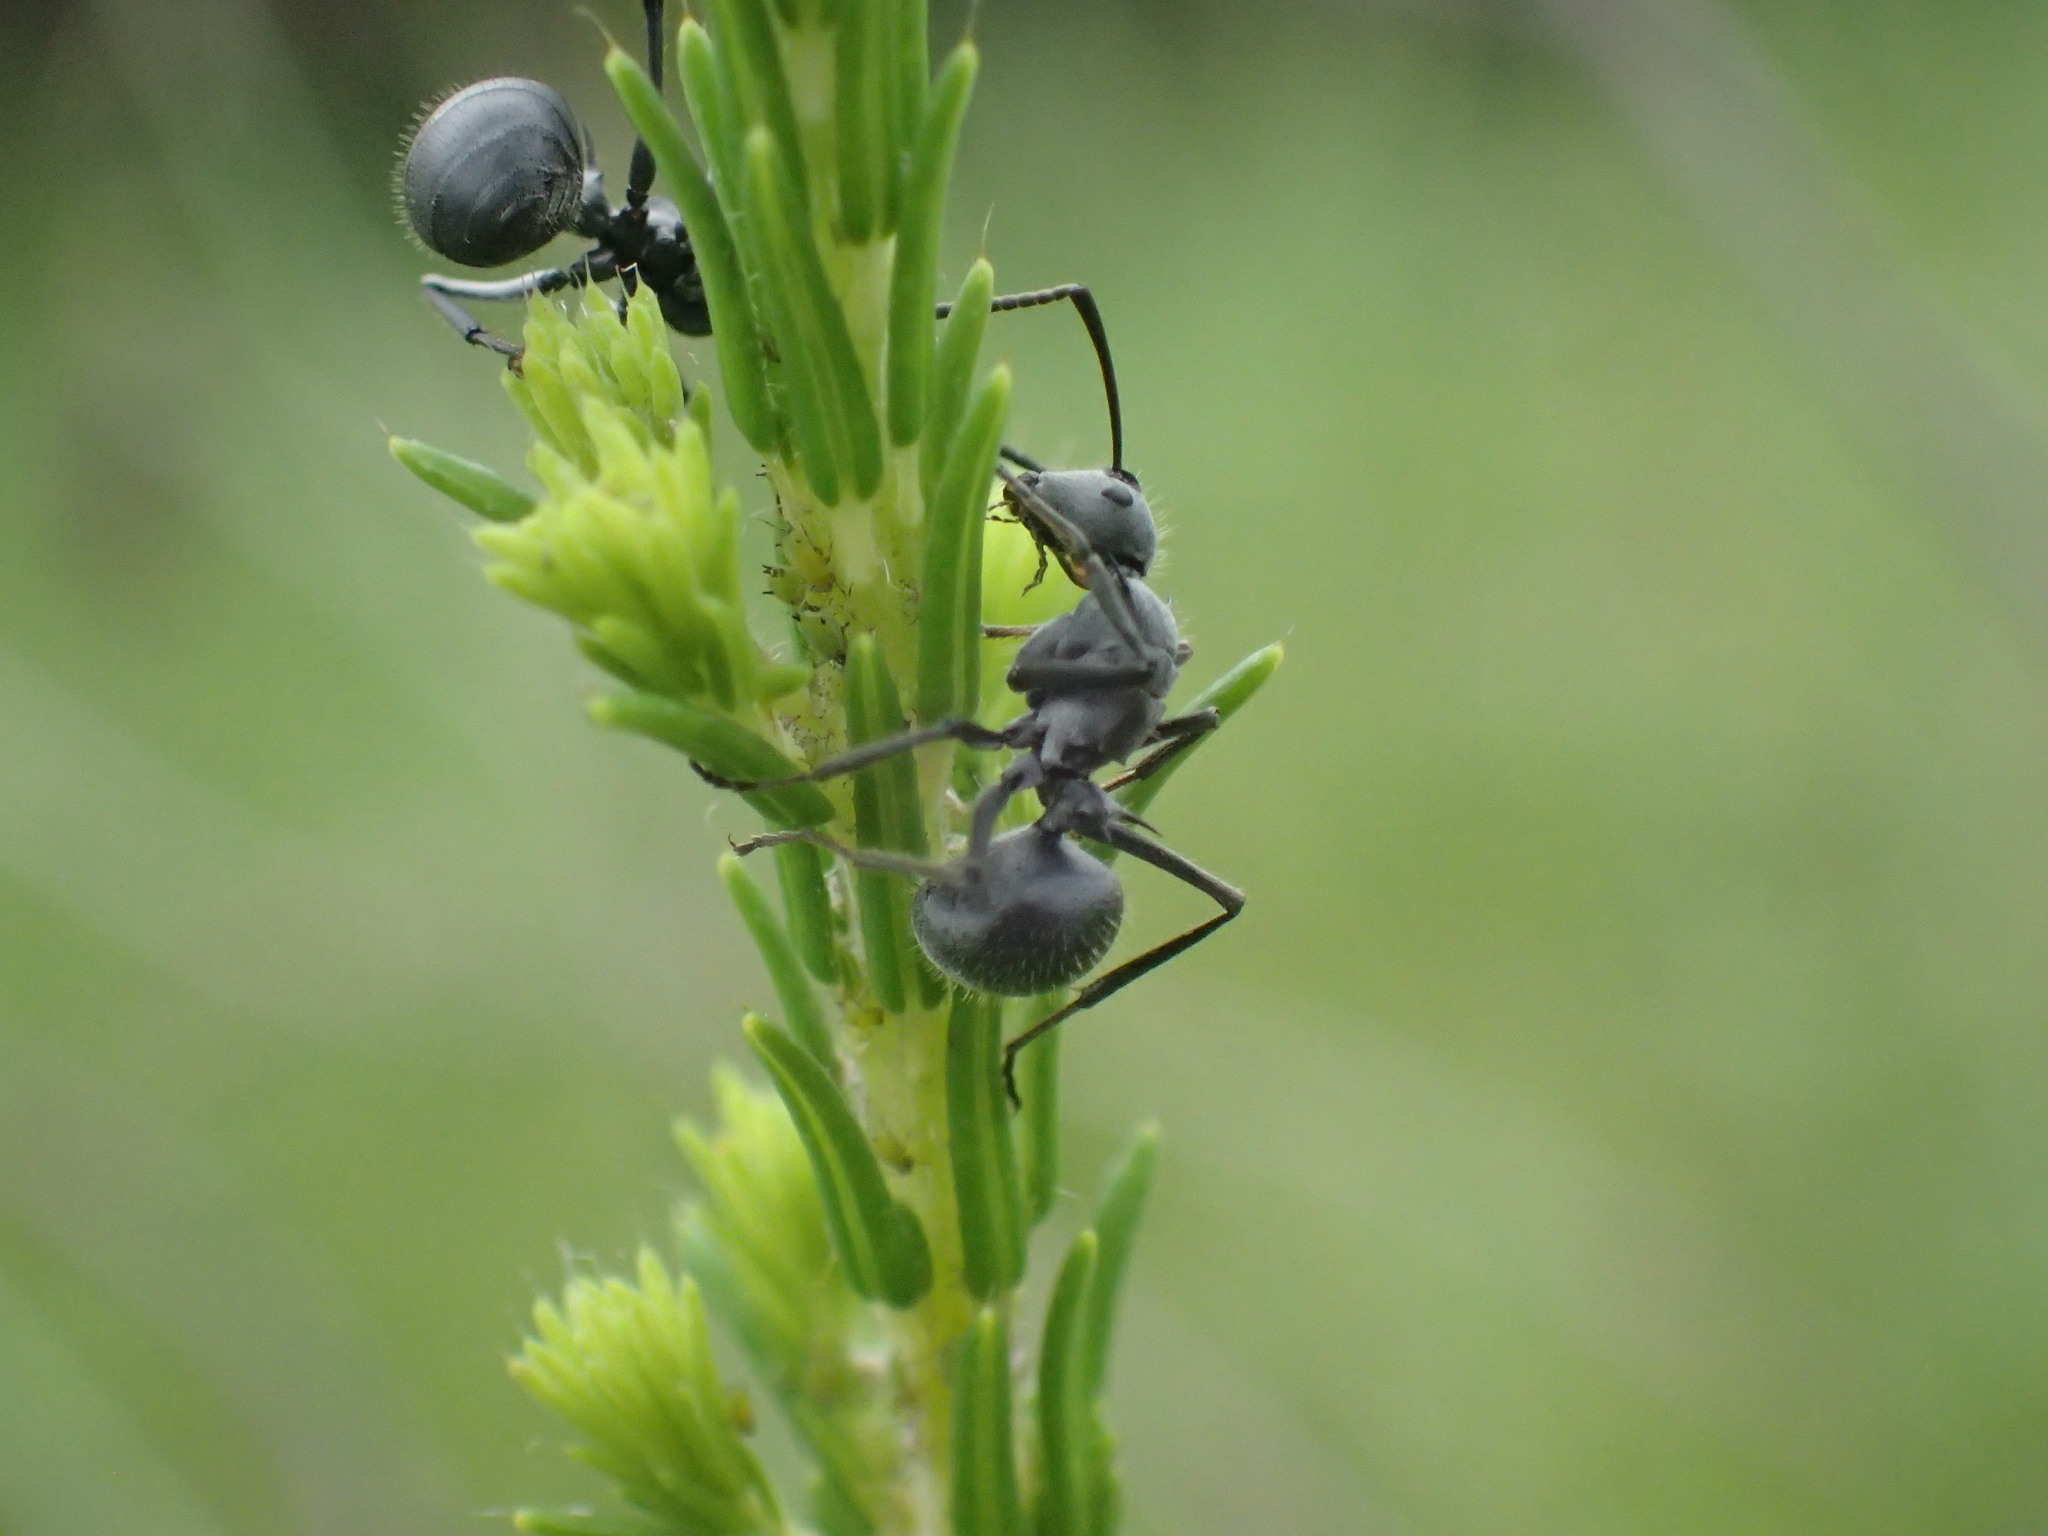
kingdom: Animalia
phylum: Arthropoda
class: Insecta
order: Hymenoptera
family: Formicidae
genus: Polyrhachis
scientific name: Polyrhachis schistacea
